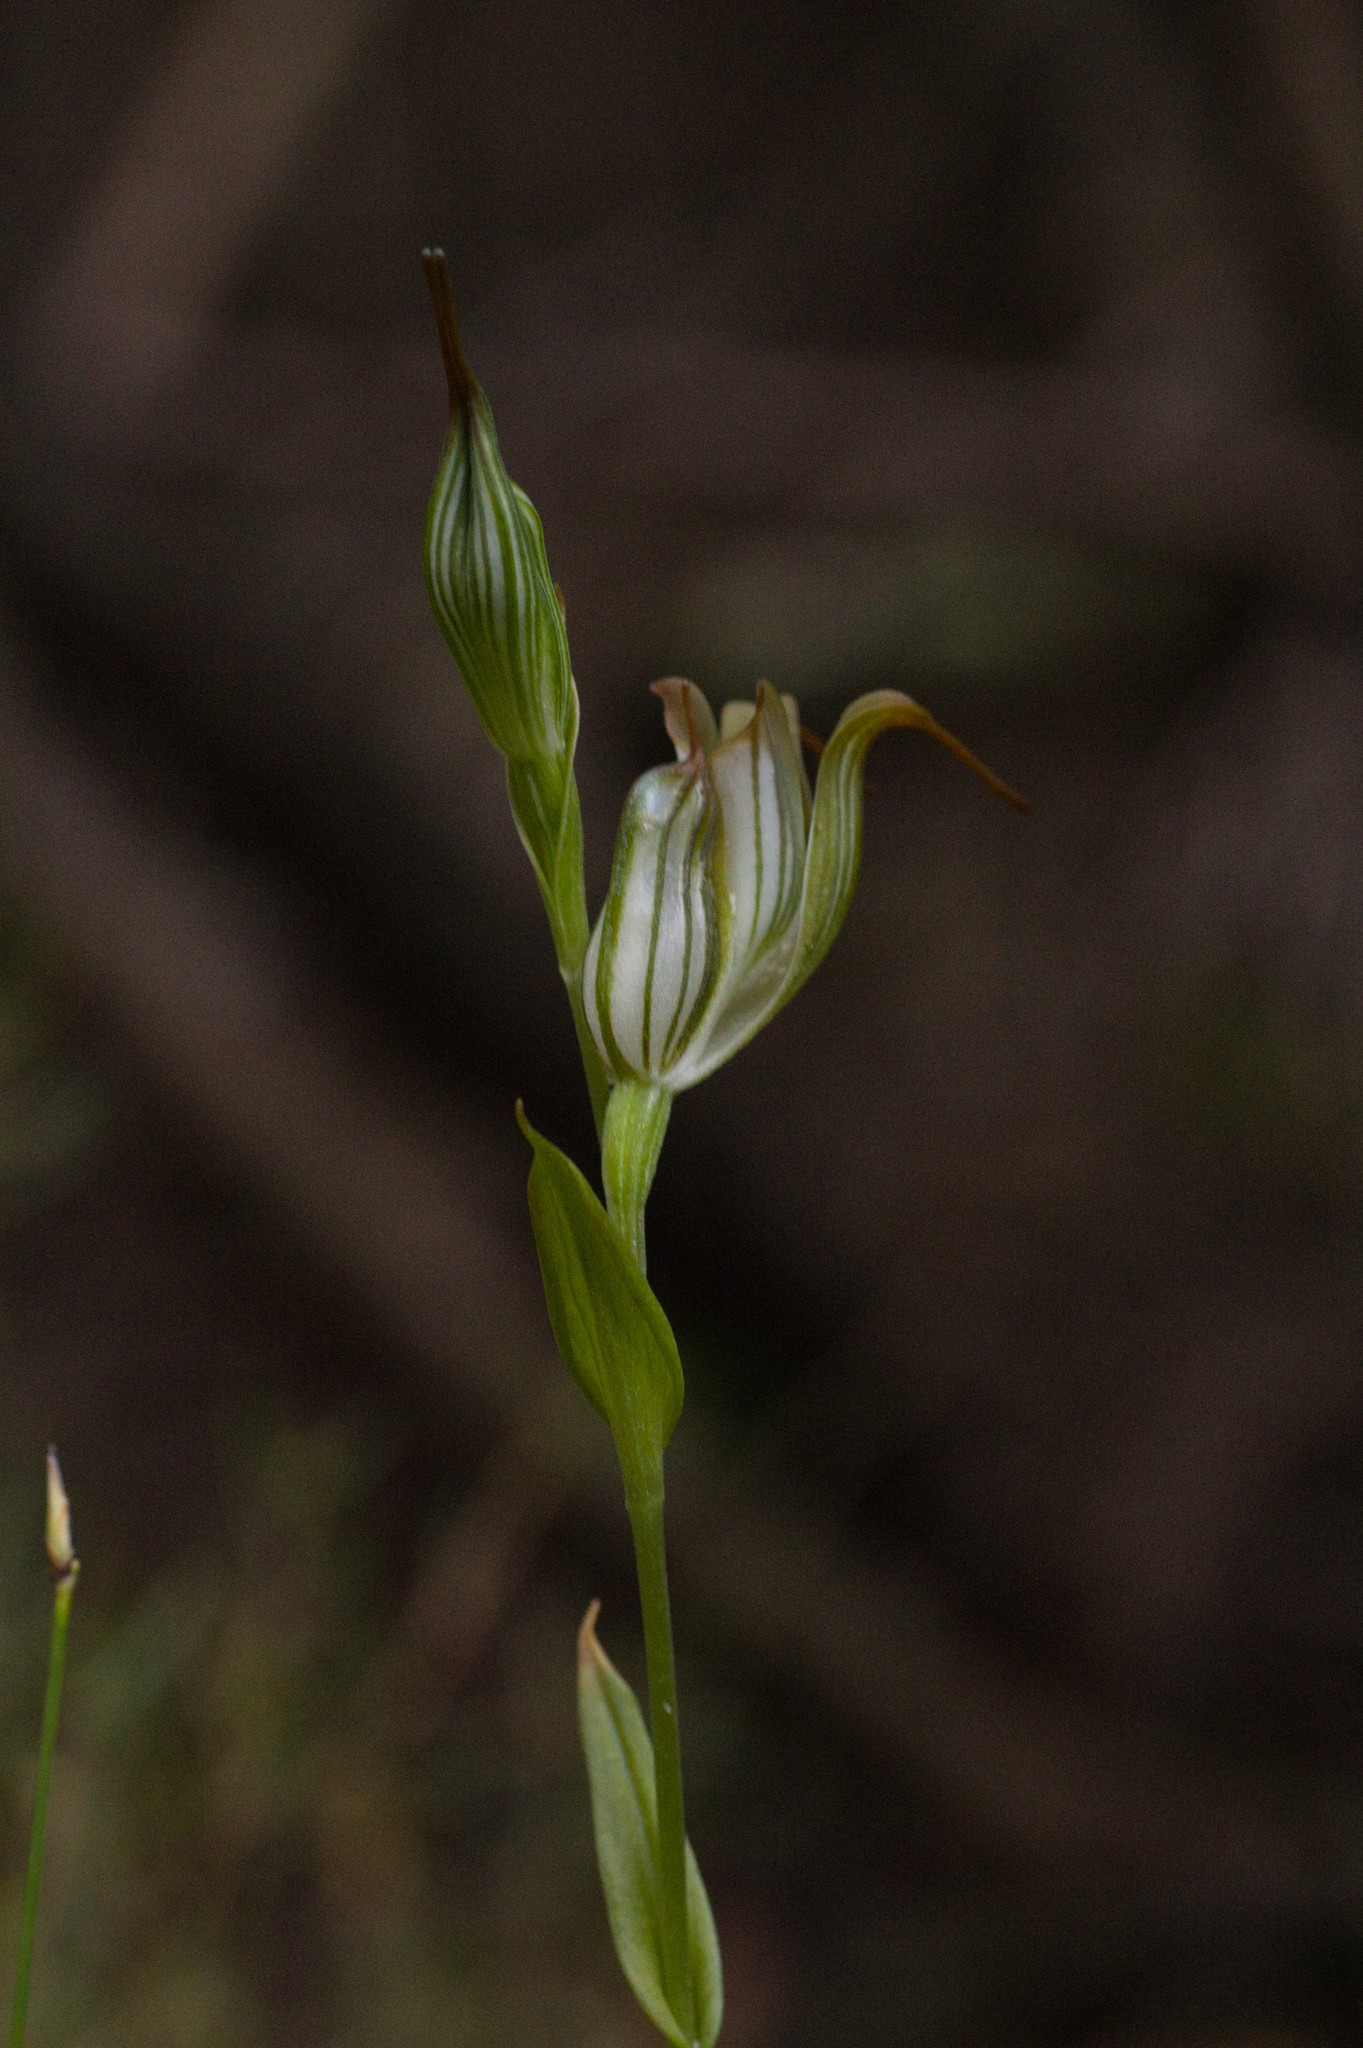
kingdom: Plantae
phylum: Tracheophyta
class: Liliopsida
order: Asparagales
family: Orchidaceae
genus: Pterostylis
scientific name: Pterostylis recurva
